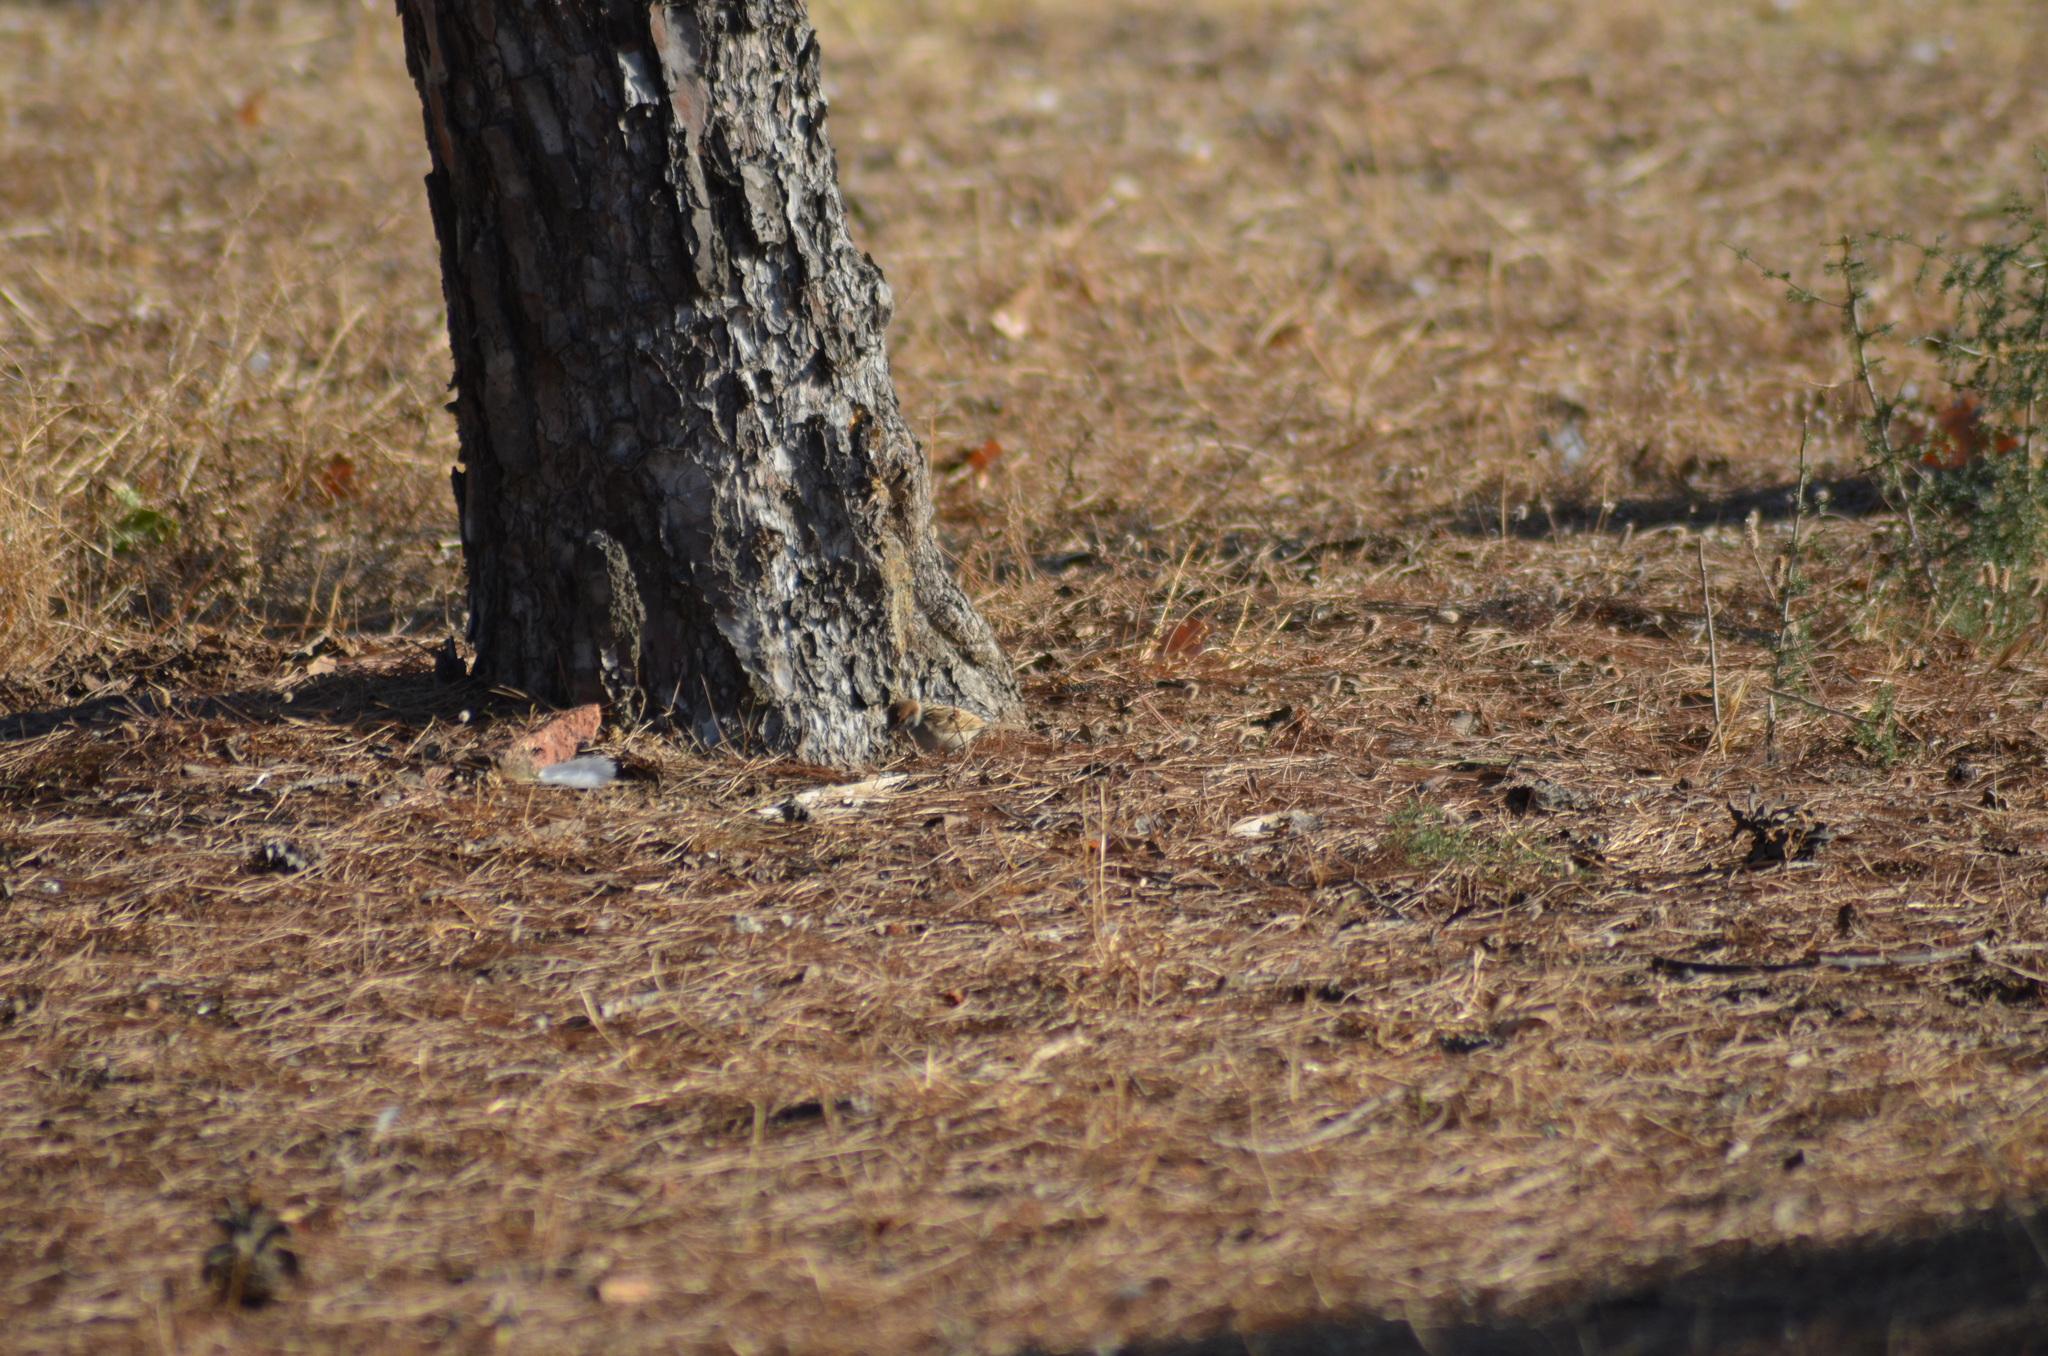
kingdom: Animalia
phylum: Chordata
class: Aves
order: Passeriformes
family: Passeridae
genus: Passer
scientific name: Passer montanus
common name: Eurasian tree sparrow
